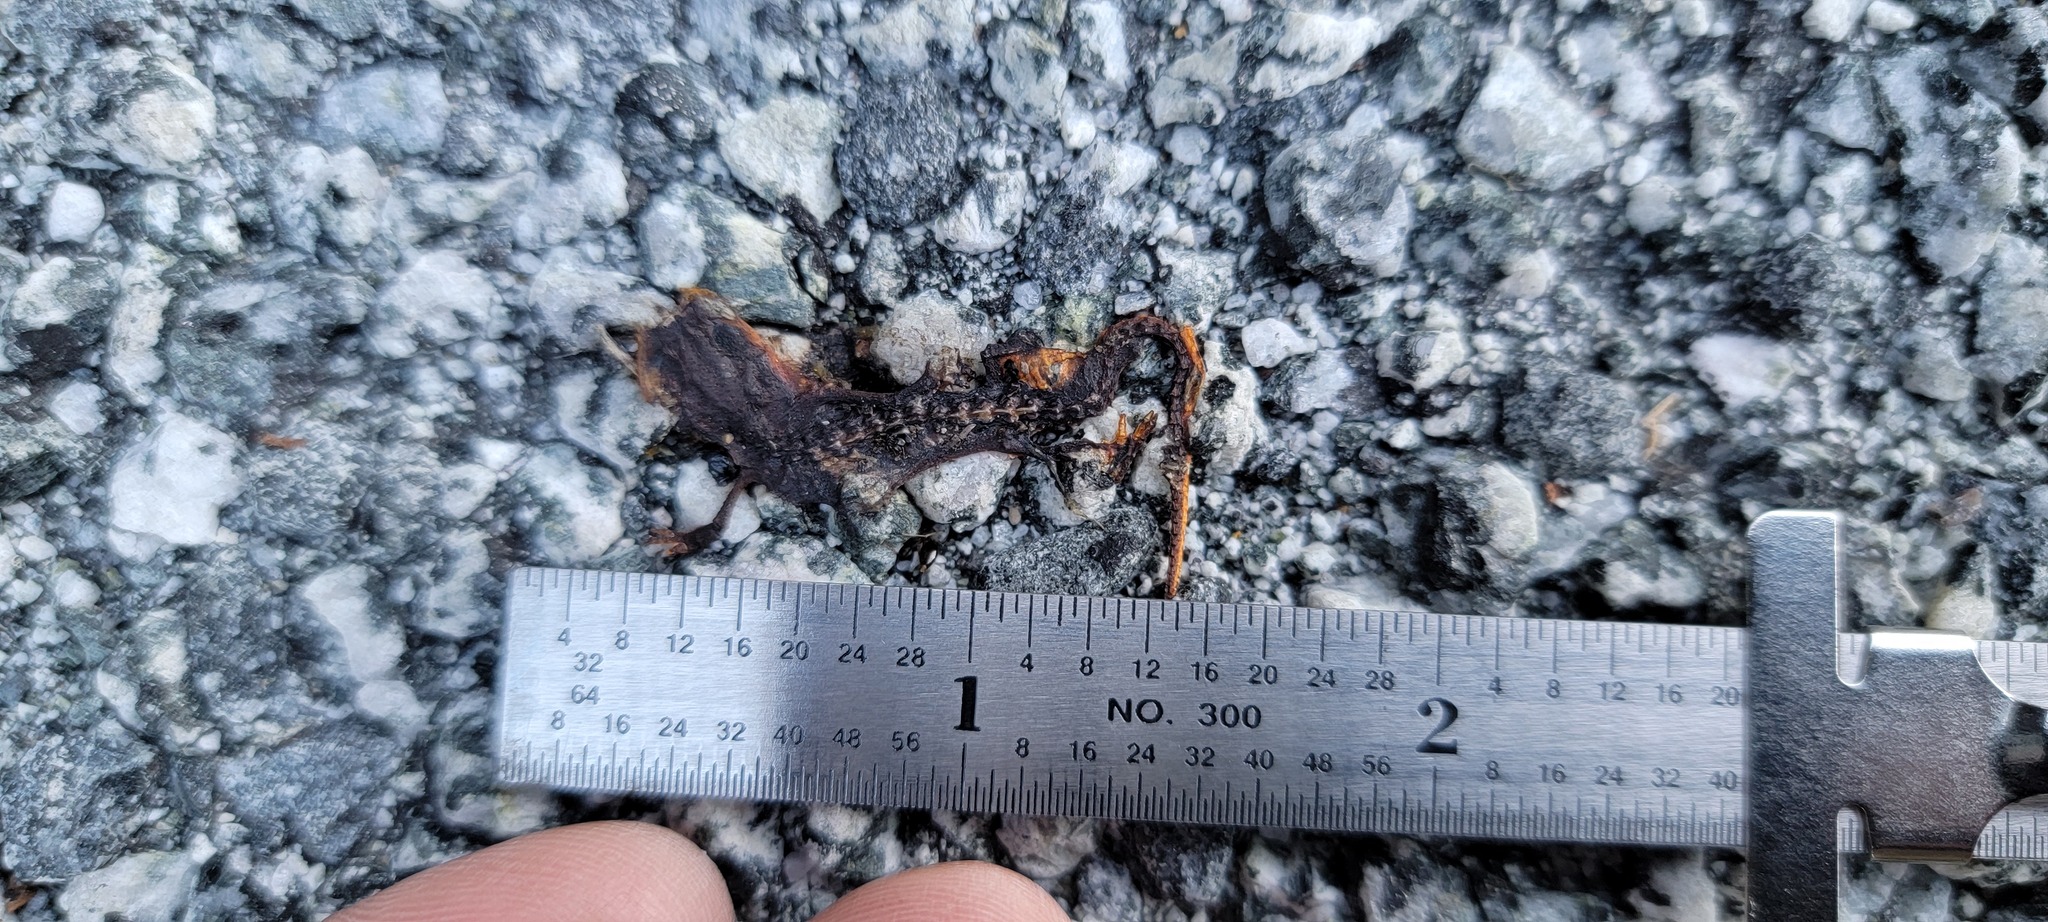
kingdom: Animalia
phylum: Chordata
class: Amphibia
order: Caudata
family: Salamandridae
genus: Taricha
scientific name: Taricha
